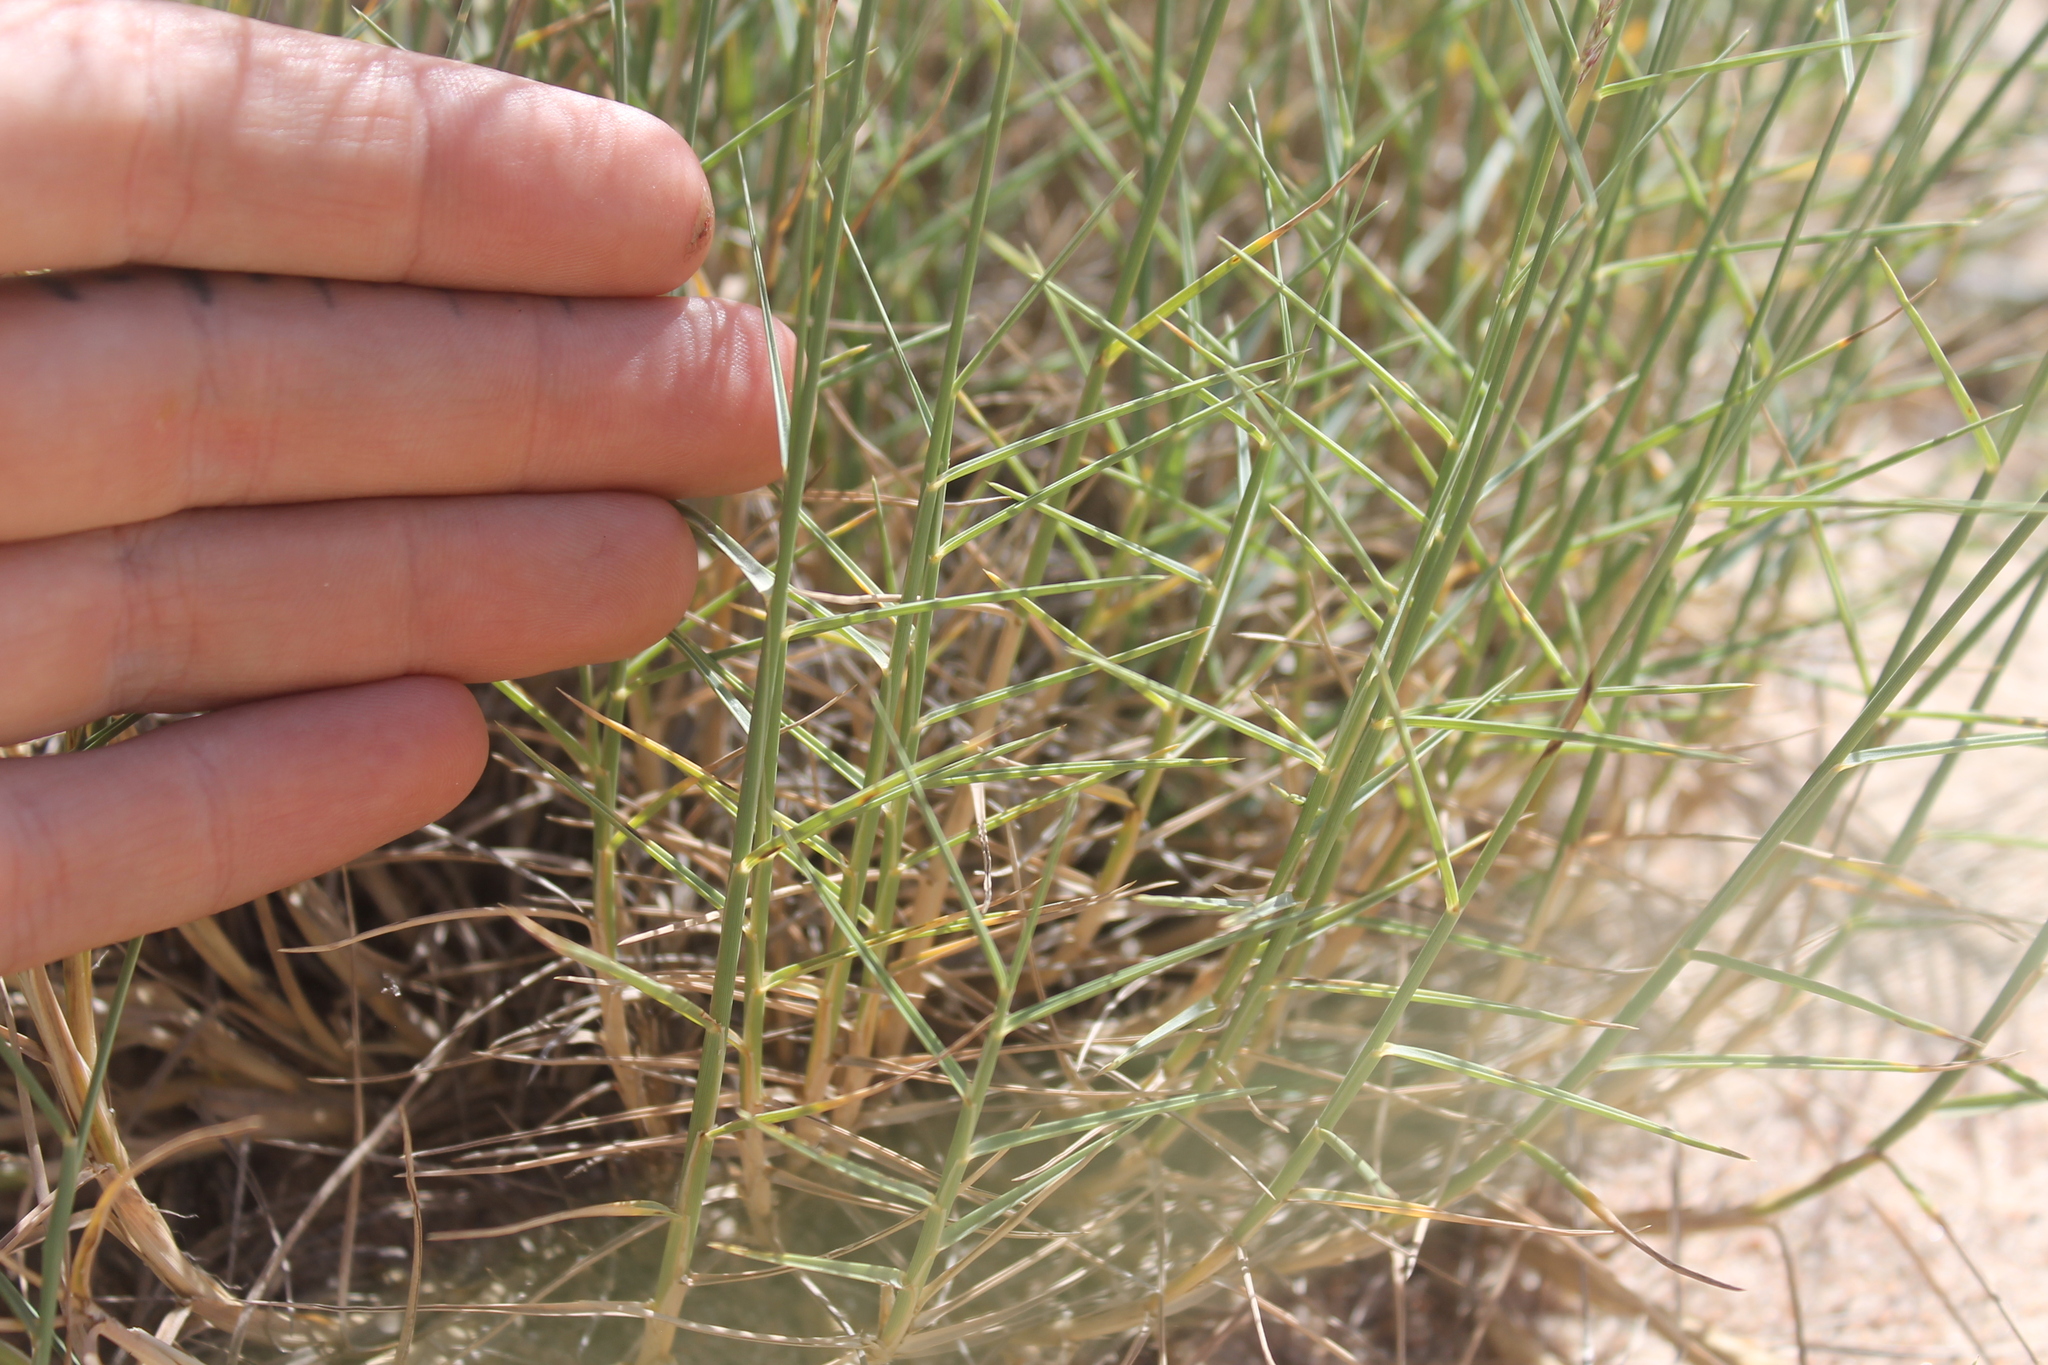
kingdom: Plantae
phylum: Tracheophyta
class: Liliopsida
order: Poales
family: Poaceae
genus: Muhlenbergia
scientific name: Muhlenbergia pungens
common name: Sandhill muhly
